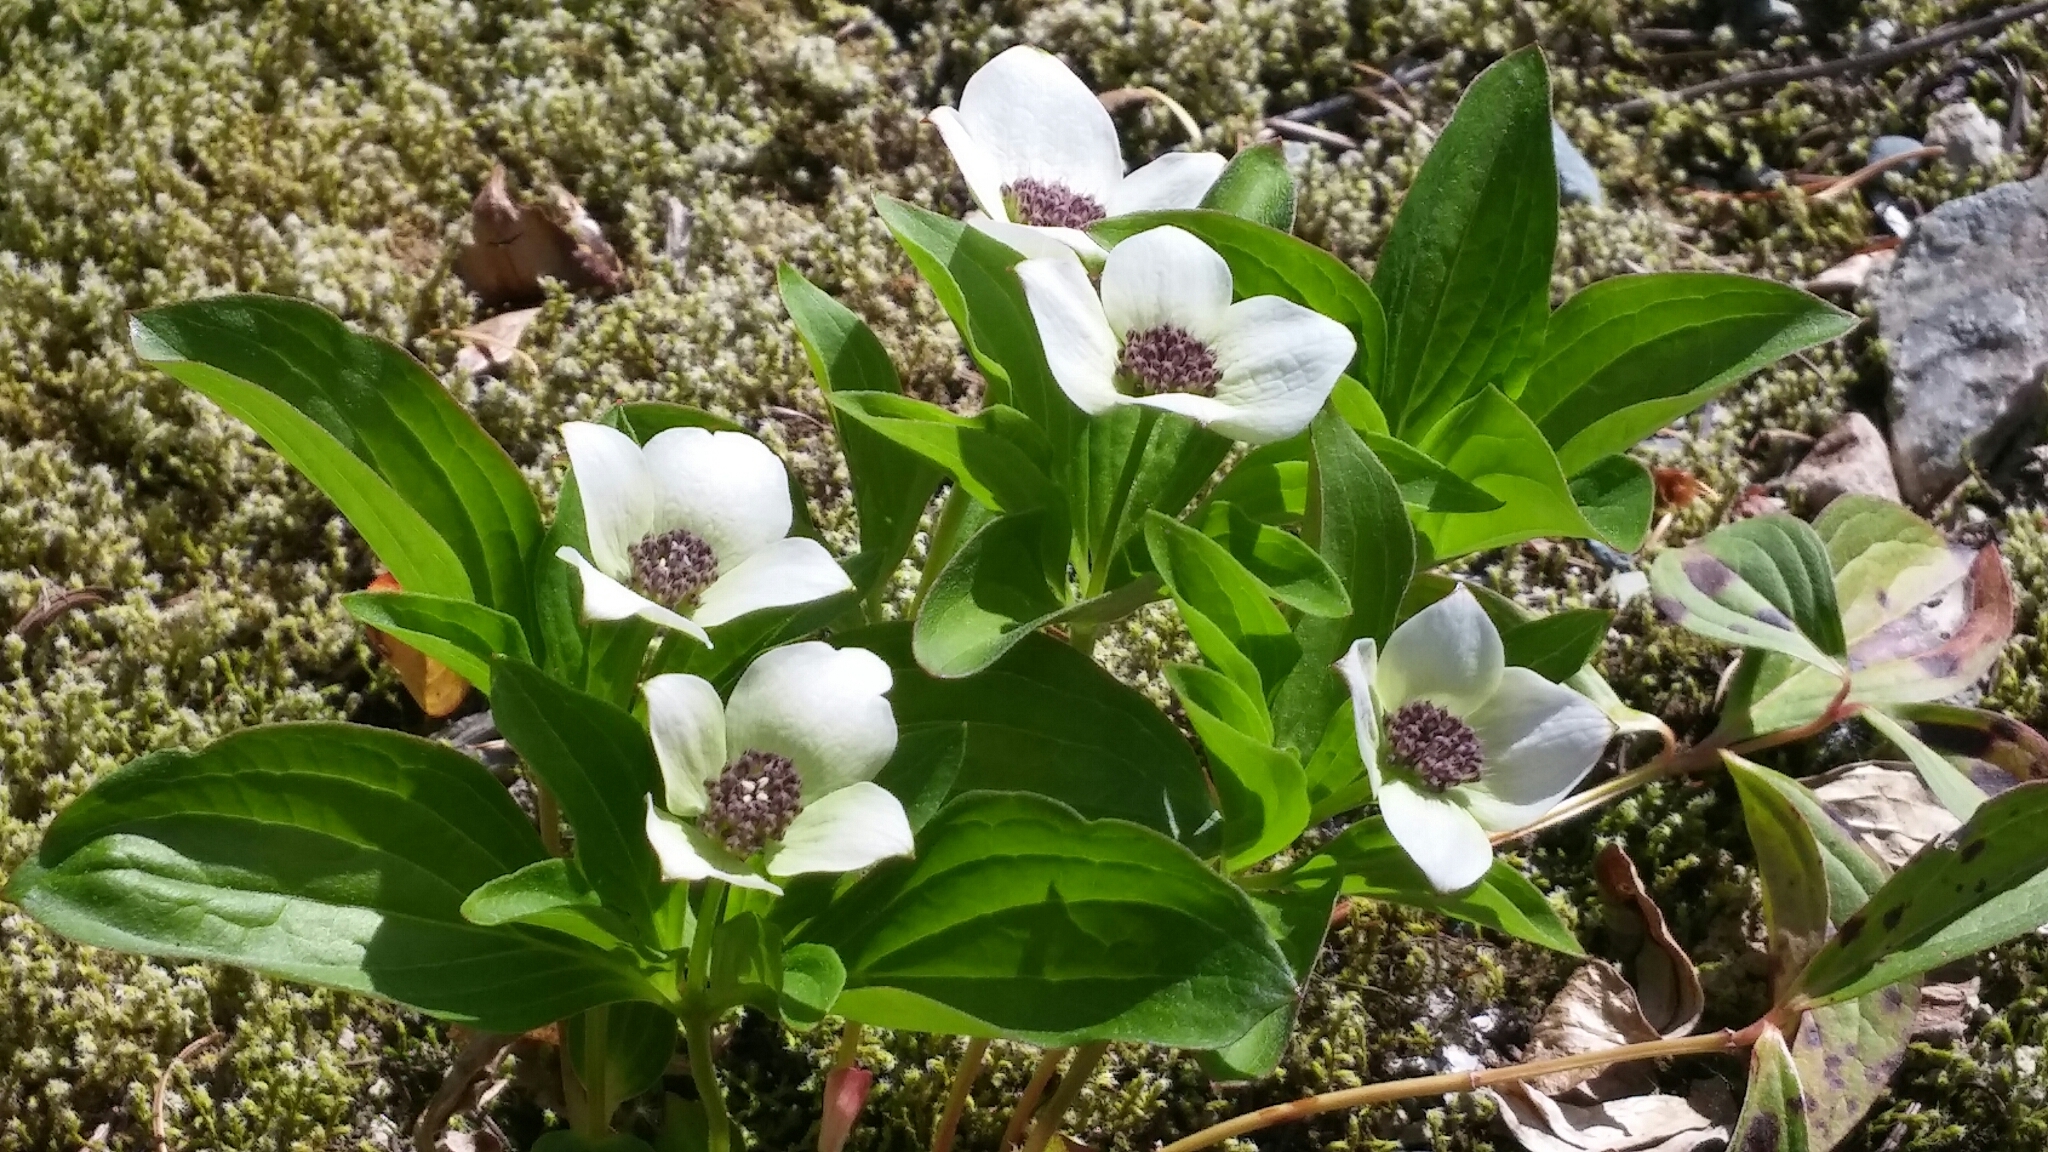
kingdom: Plantae
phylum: Tracheophyta
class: Magnoliopsida
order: Cornales
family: Cornaceae
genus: Cornus
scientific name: Cornus unalaschkensis
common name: Alaska bunchberry
